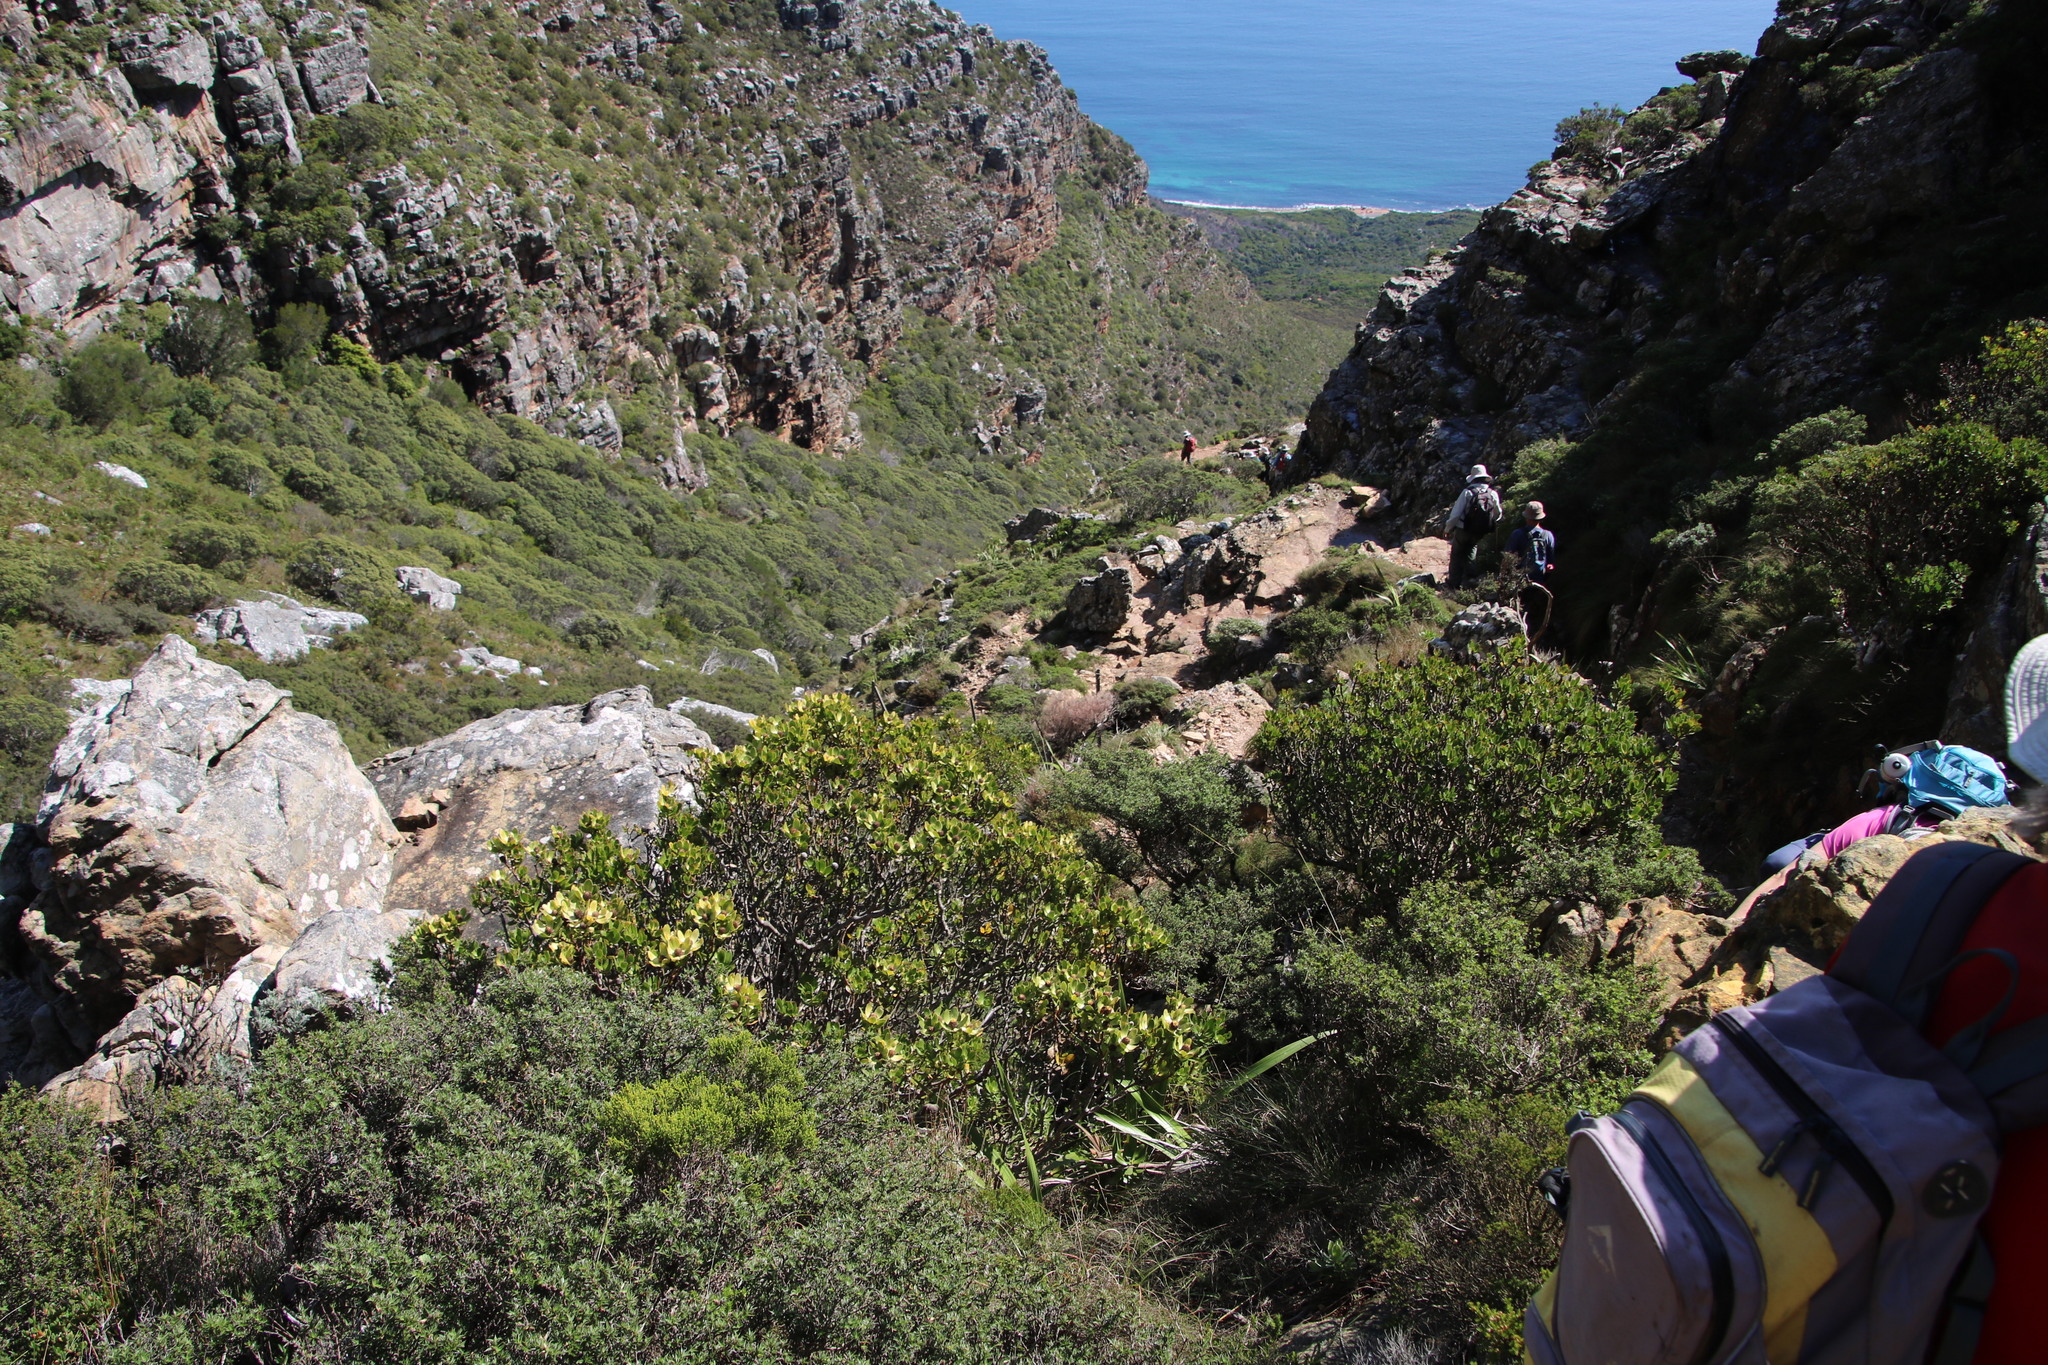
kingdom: Plantae
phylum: Tracheophyta
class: Magnoliopsida
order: Proteales
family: Proteaceae
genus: Leucadendron
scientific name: Leucadendron strobilinum
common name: Mountain rose
